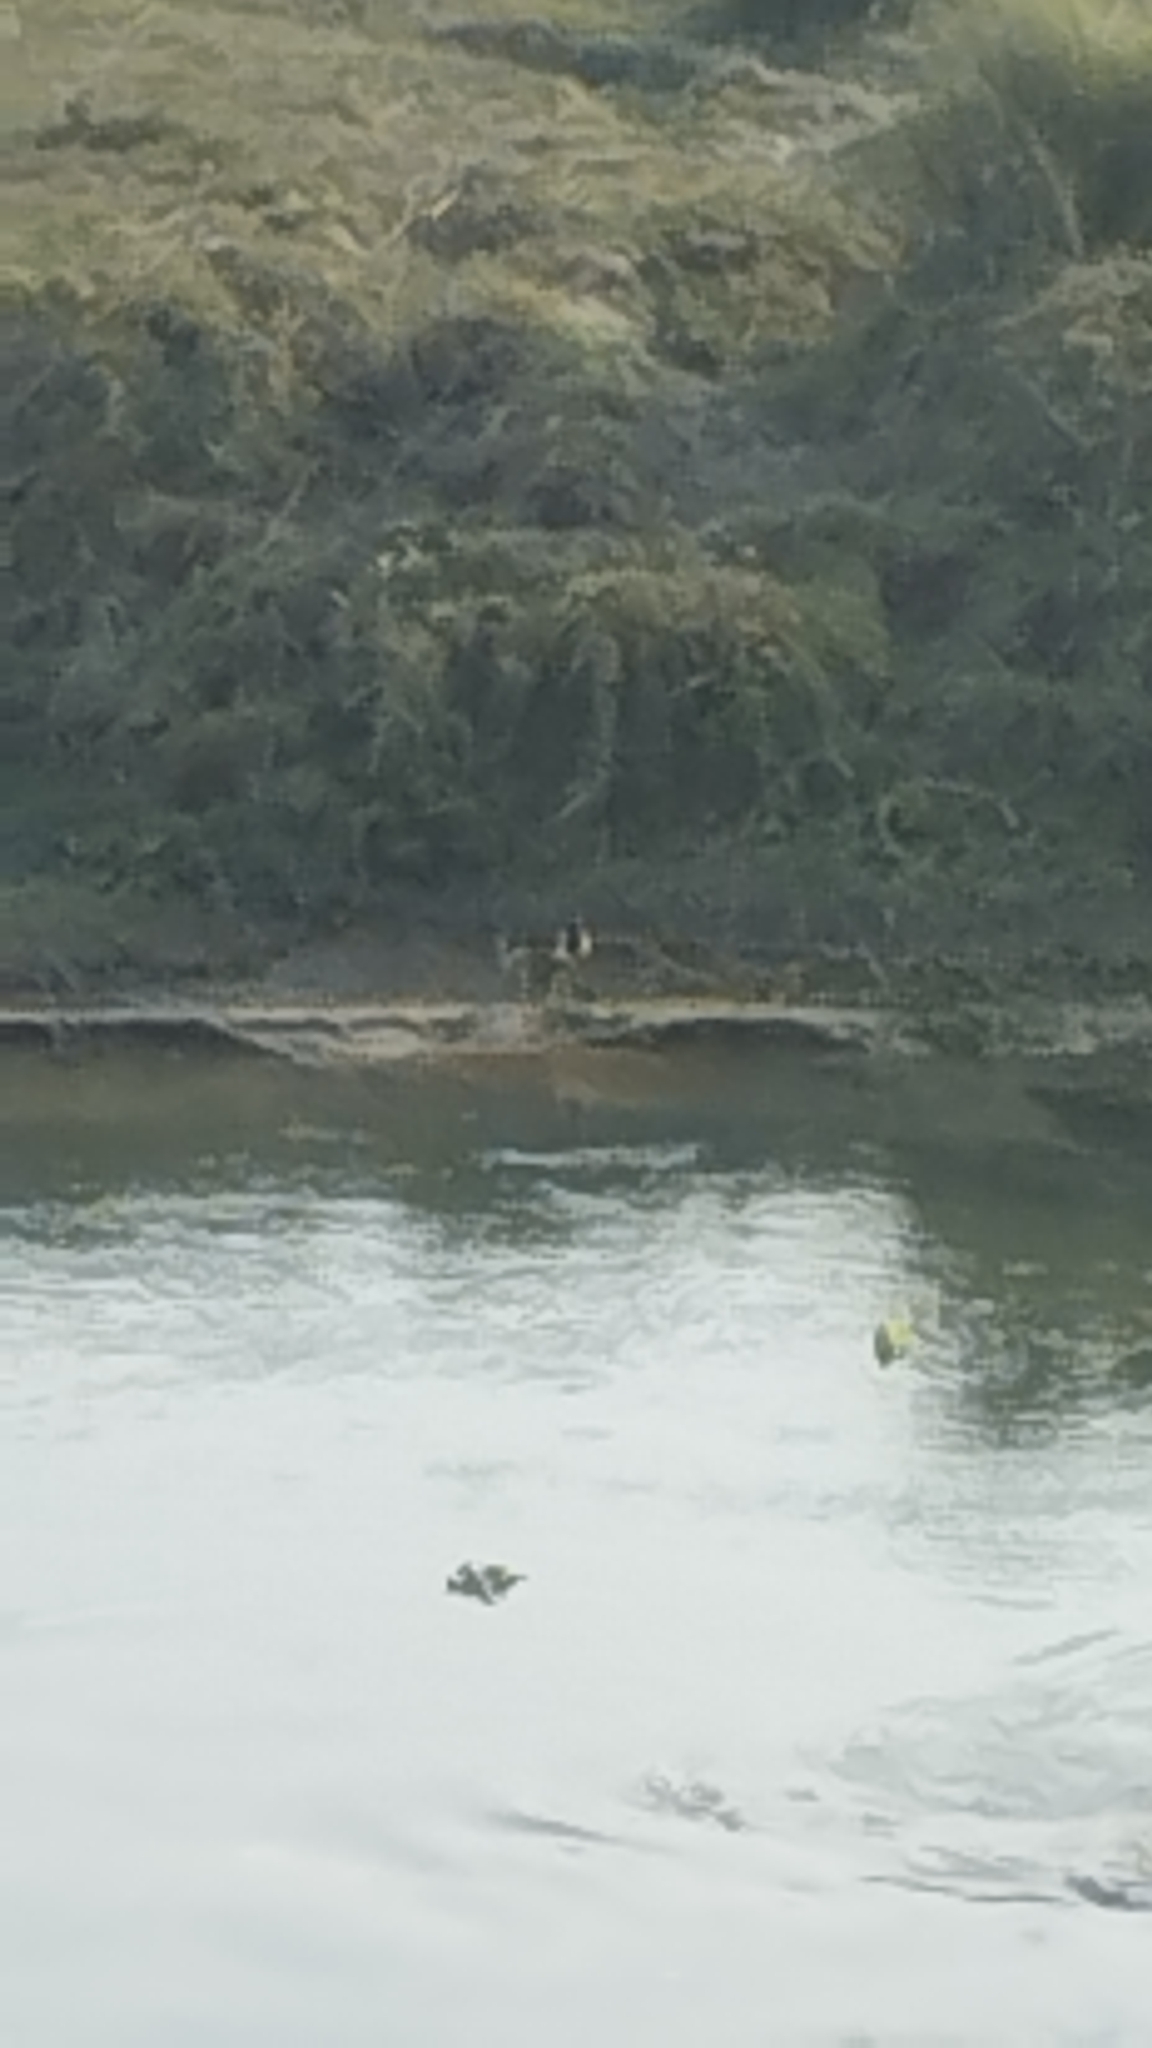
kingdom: Animalia
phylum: Chordata
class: Aves
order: Charadriiformes
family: Charadriidae
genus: Vanellus
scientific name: Vanellus indicus
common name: Red-wattled lapwing
